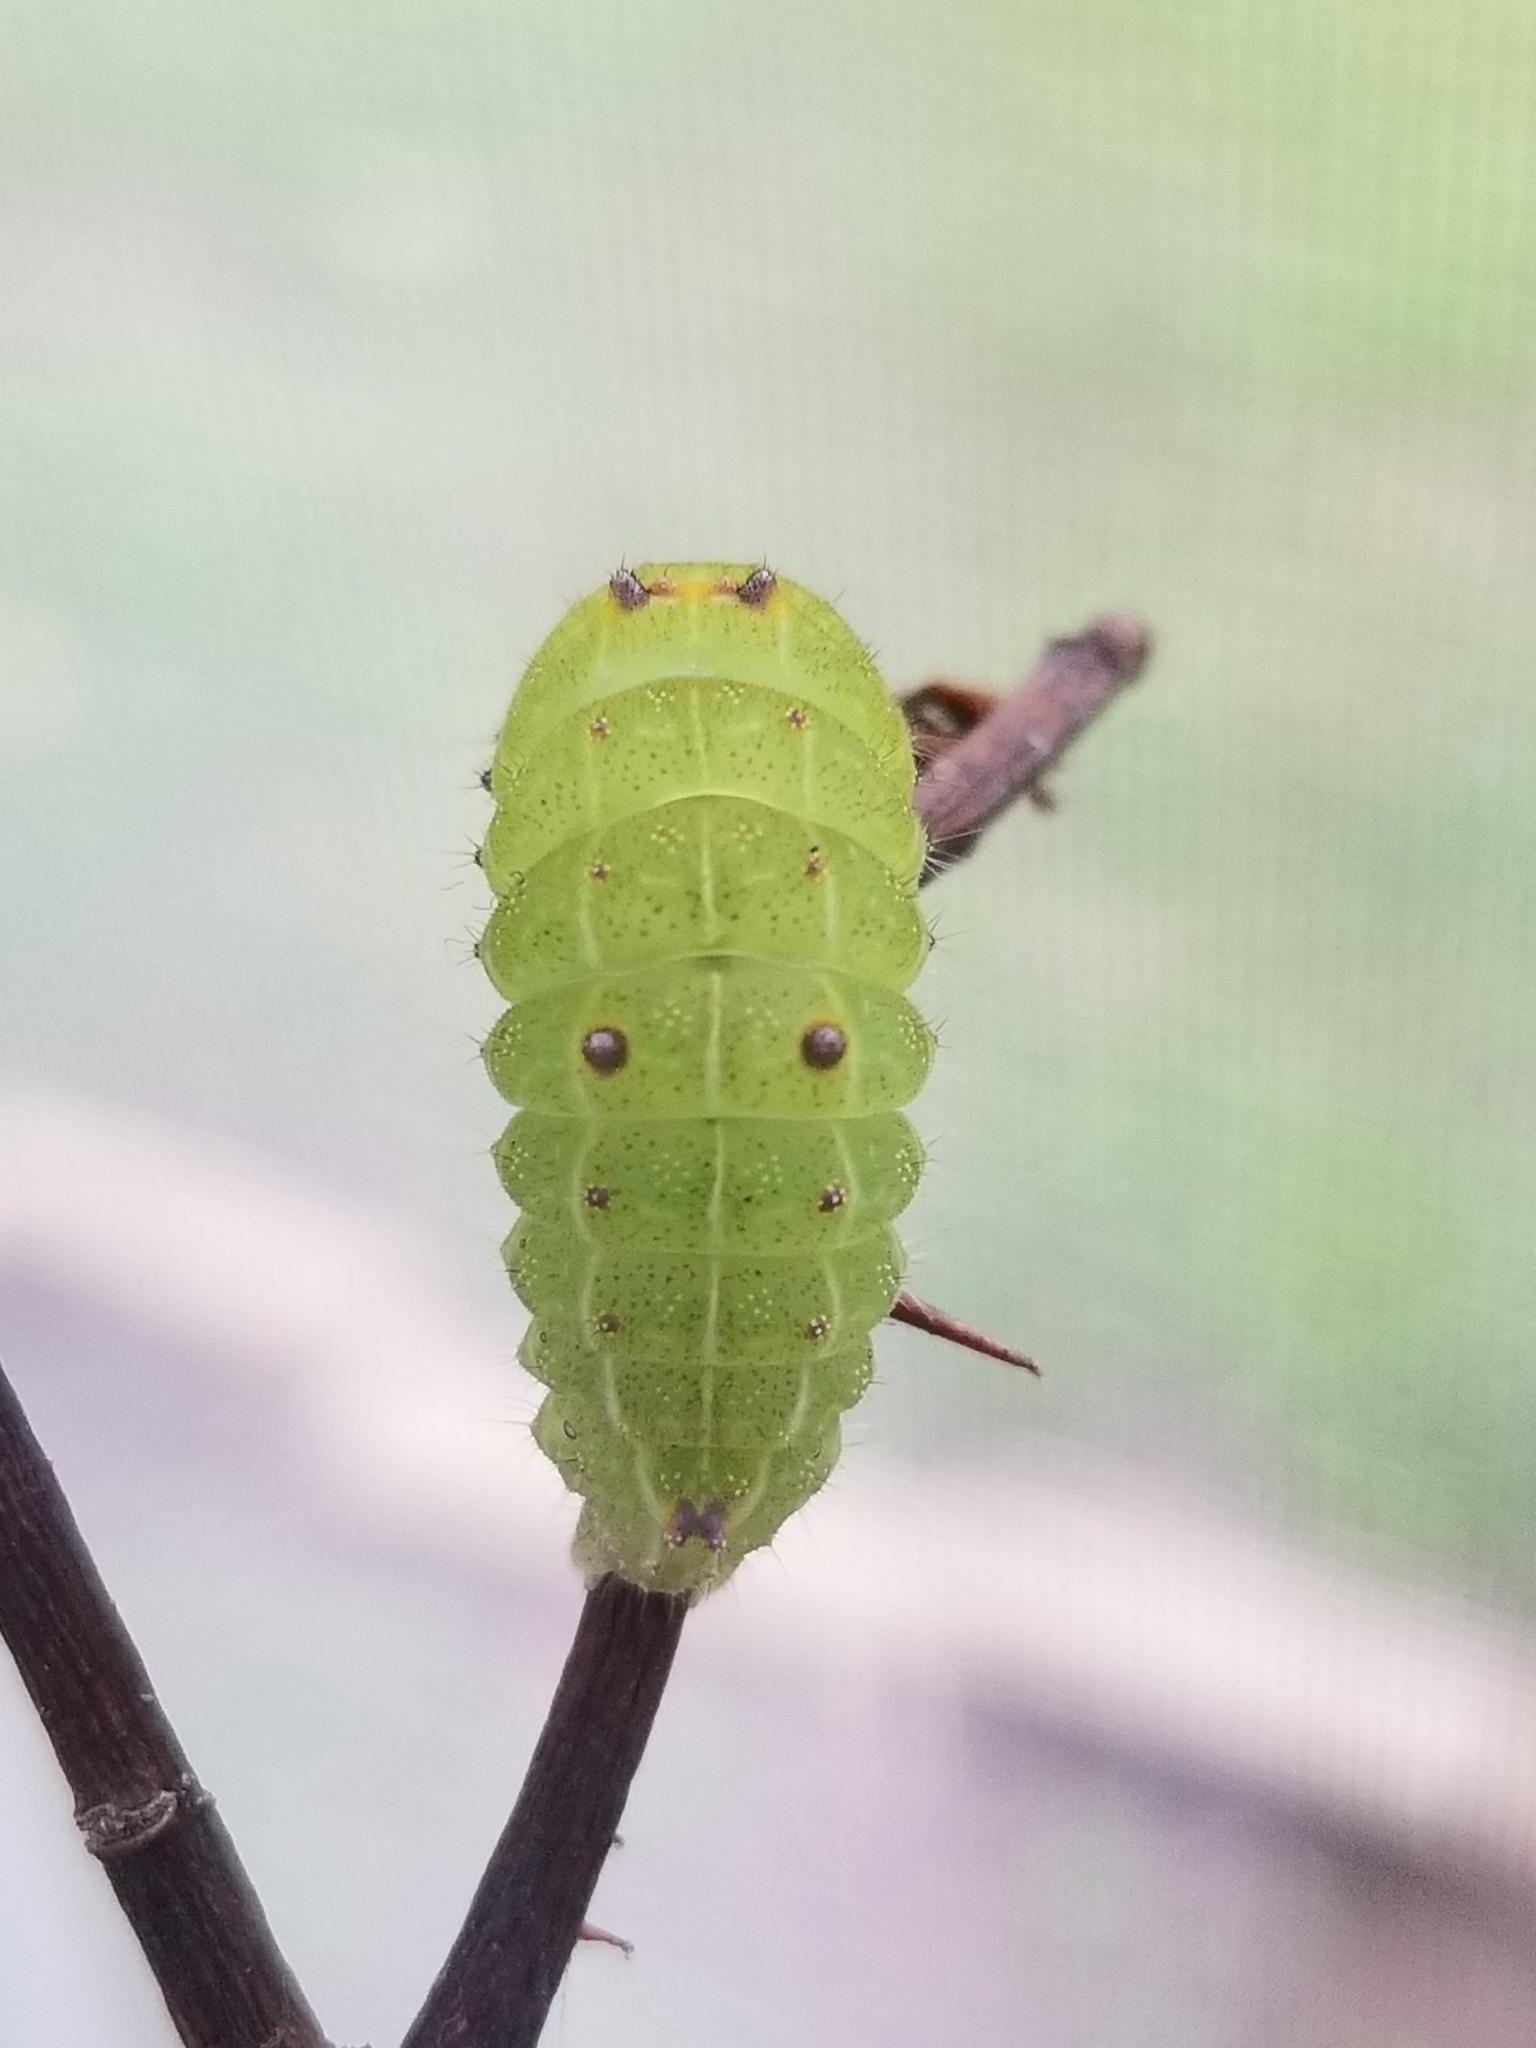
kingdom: Animalia
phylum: Arthropoda
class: Insecta
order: Lepidoptera
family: Noctuidae
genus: Acronicta
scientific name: Acronicta vinnula
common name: Delightful dagger
